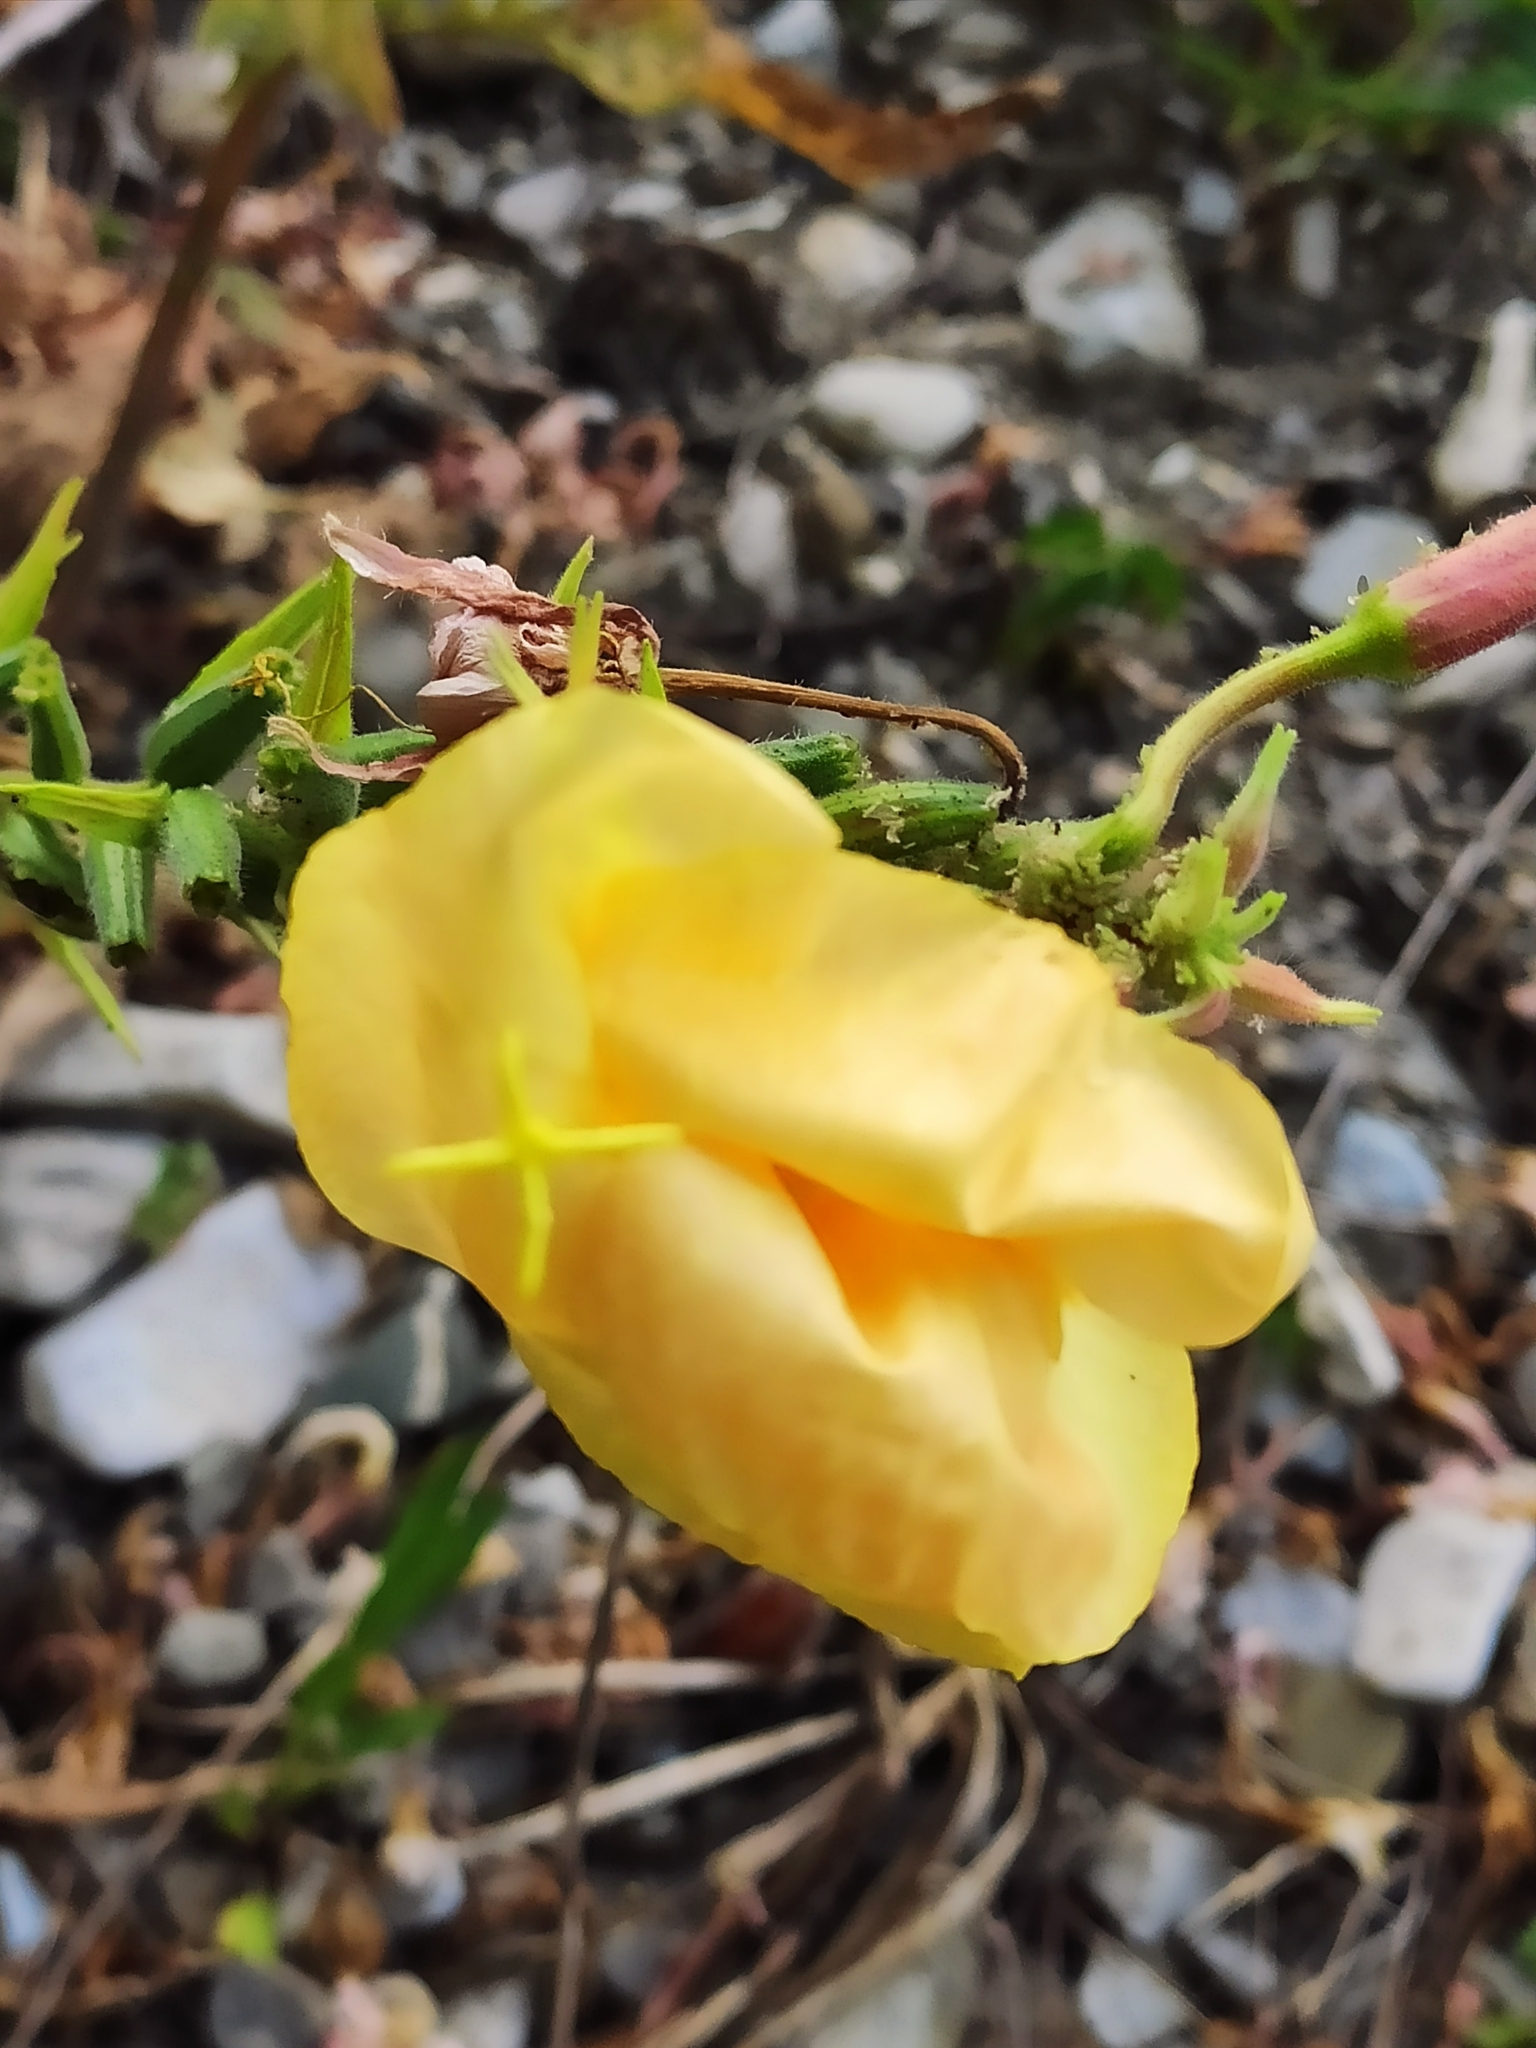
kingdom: Plantae
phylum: Tracheophyta
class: Magnoliopsida
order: Myrtales
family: Onagraceae
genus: Oenothera
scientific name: Oenothera glazioviana
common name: Large-flowered evening-primrose
